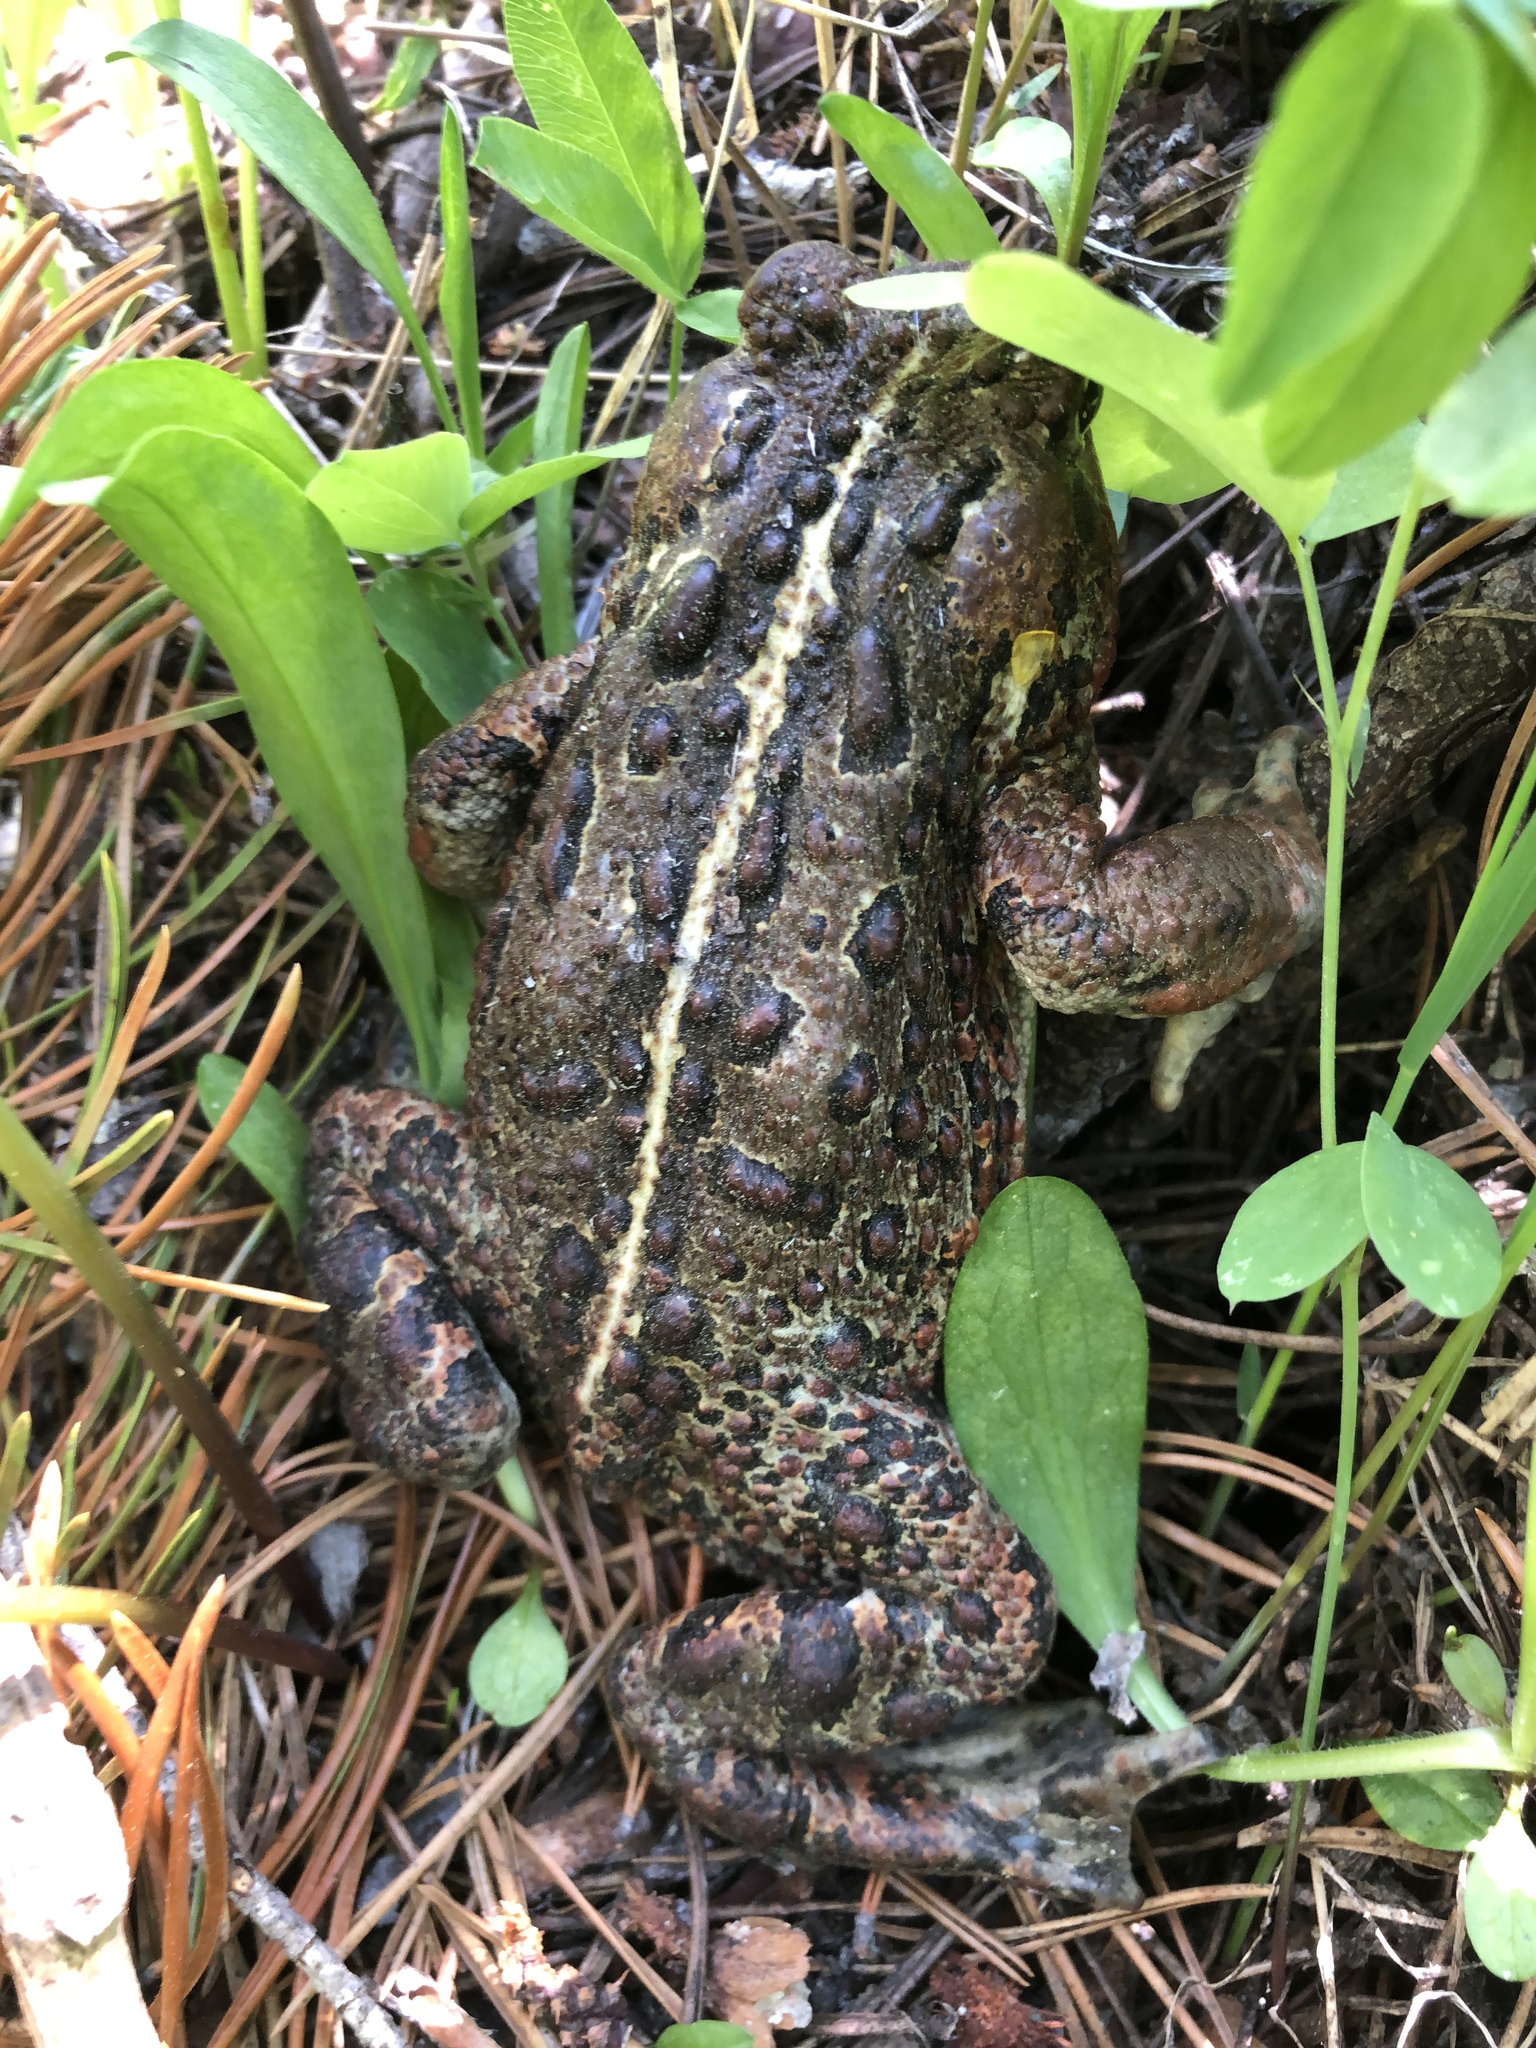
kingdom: Animalia
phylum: Chordata
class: Amphibia
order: Anura
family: Bufonidae
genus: Anaxyrus
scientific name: Anaxyrus boreas
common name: Western toad
